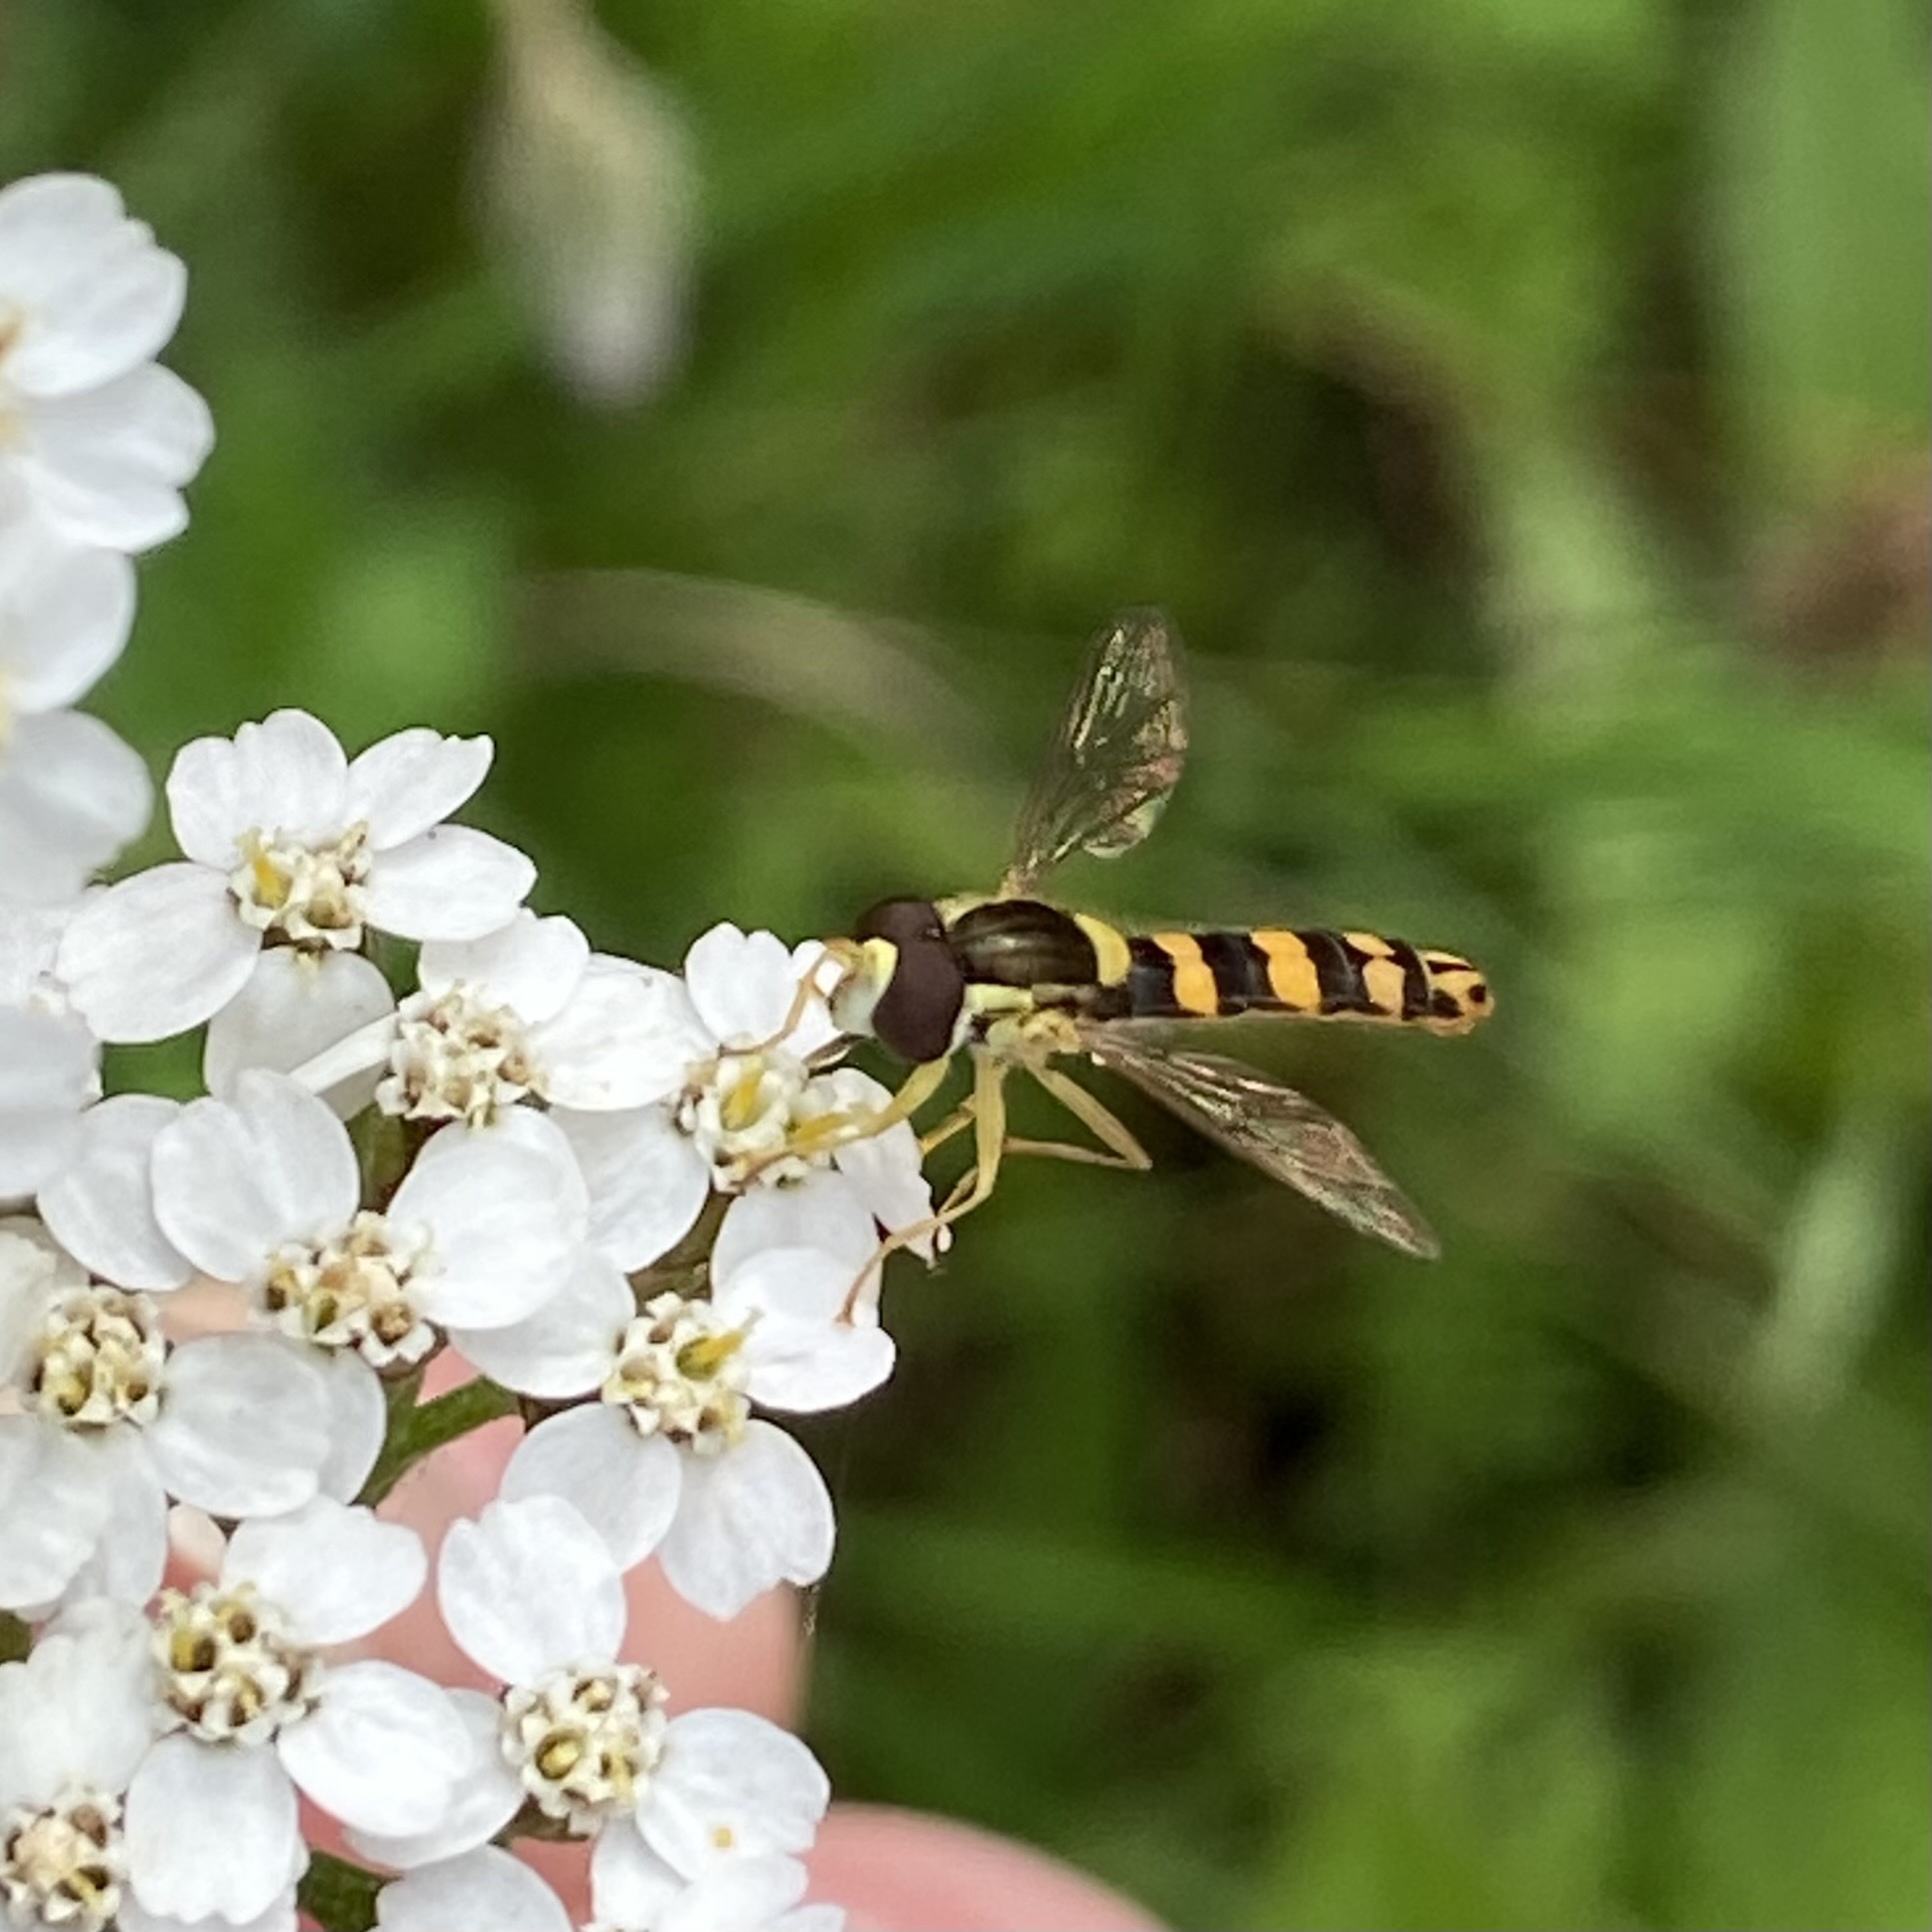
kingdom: Animalia
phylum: Arthropoda
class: Insecta
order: Diptera
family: Syrphidae
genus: Sphaerophoria
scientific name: Sphaerophoria scripta
